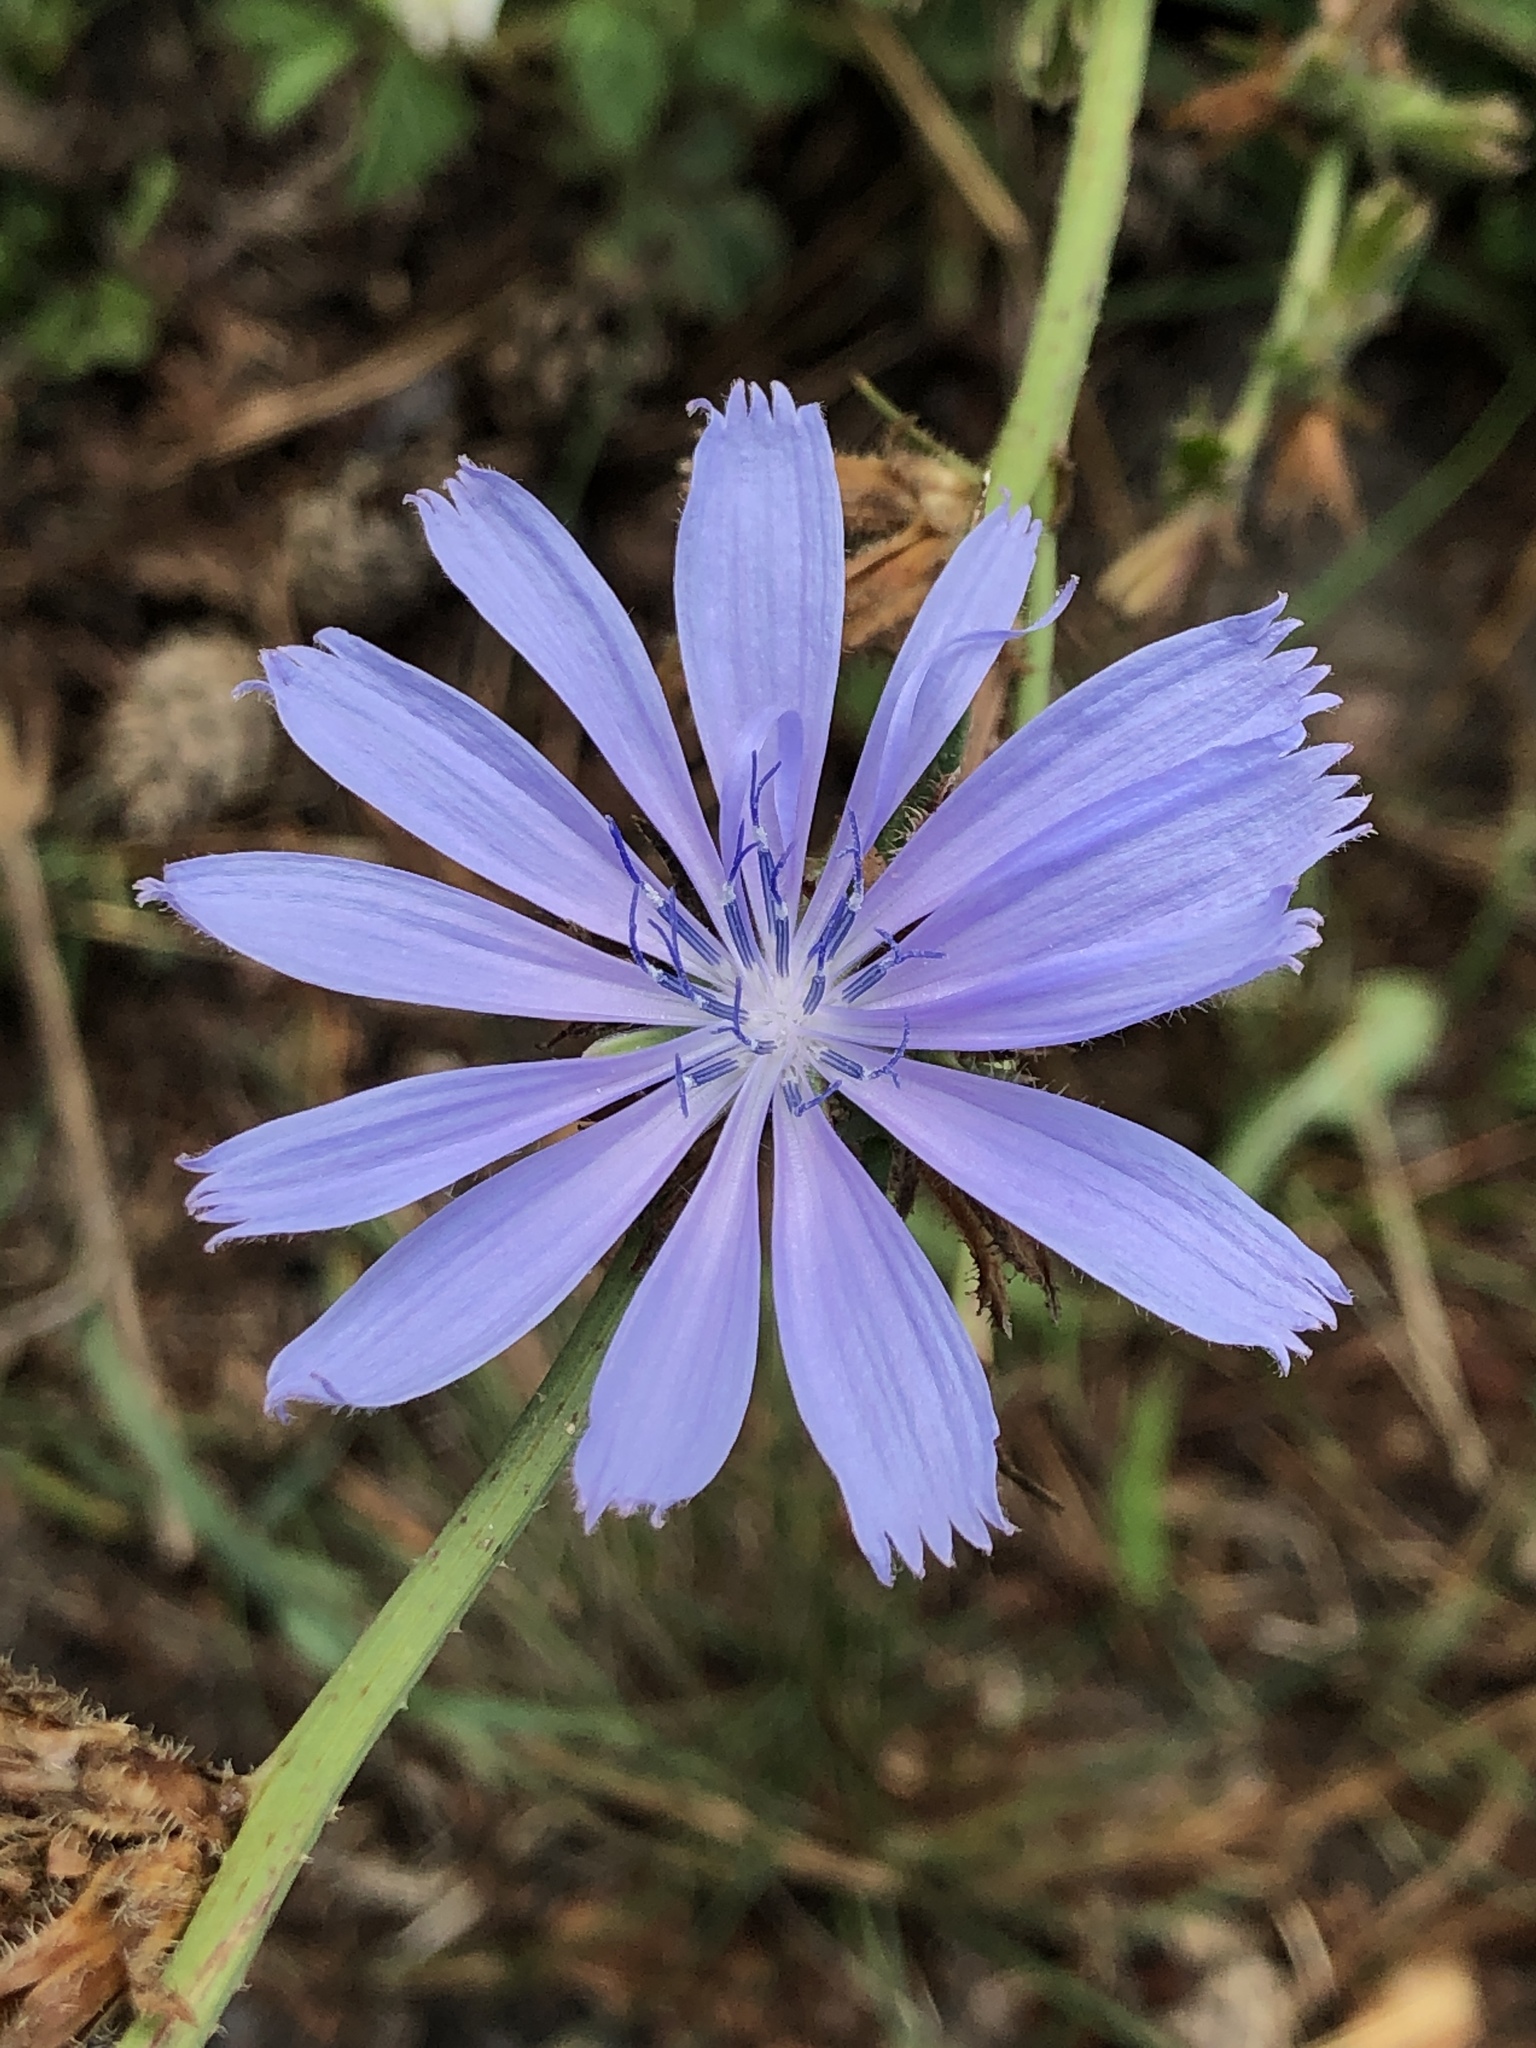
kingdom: Plantae
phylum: Tracheophyta
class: Magnoliopsida
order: Asterales
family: Asteraceae
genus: Cichorium
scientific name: Cichorium intybus
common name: Chicory
